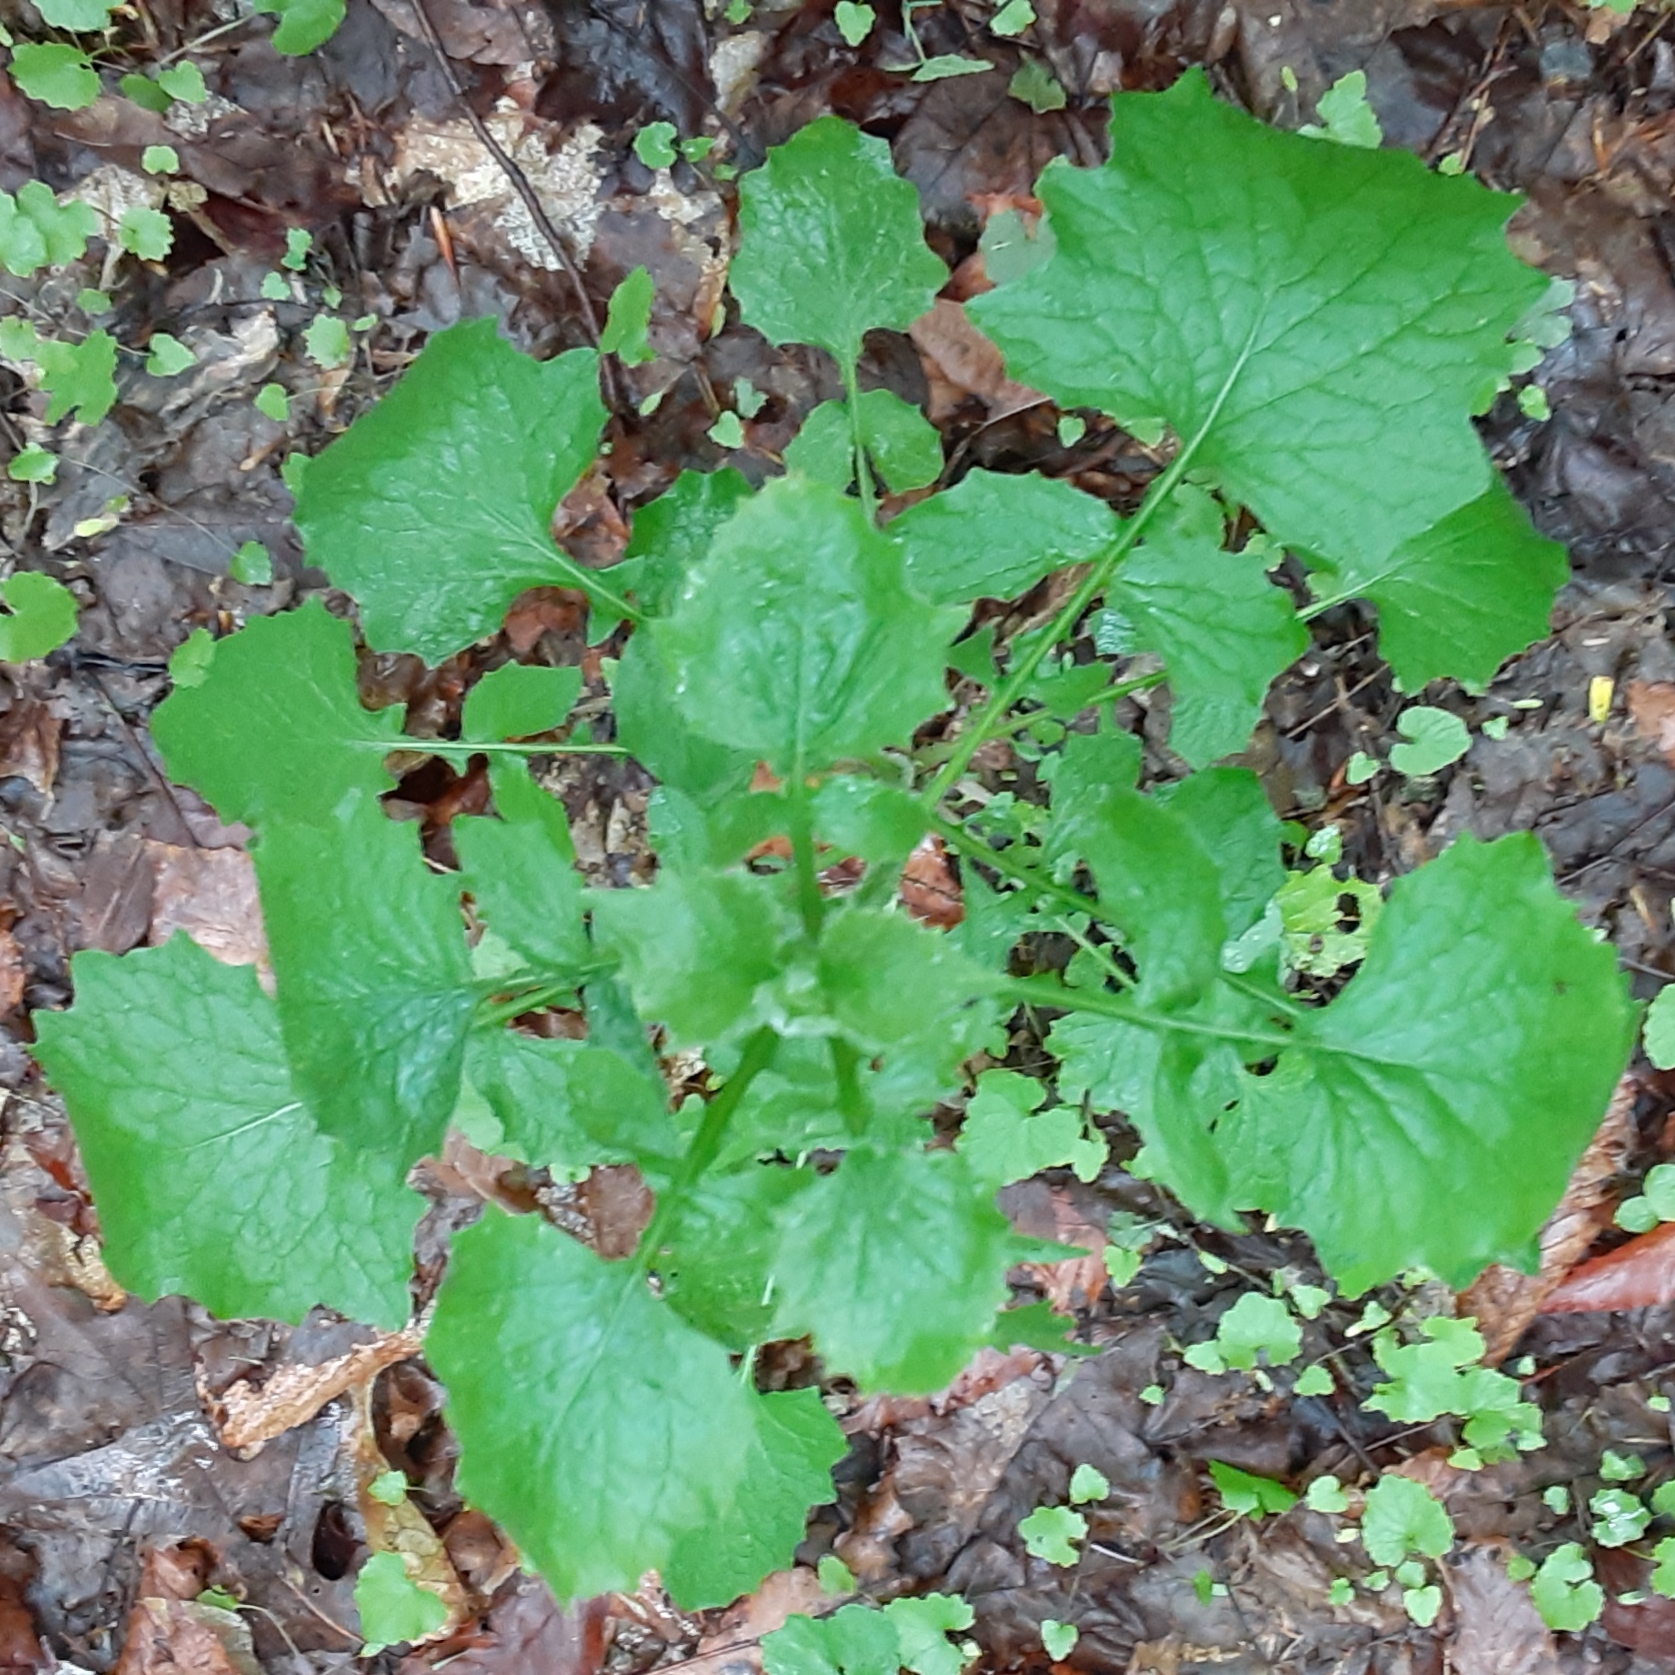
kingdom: Plantae
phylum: Tracheophyta
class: Magnoliopsida
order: Asterales
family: Asteraceae
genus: Lapsana
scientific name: Lapsana communis
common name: Nipplewort
